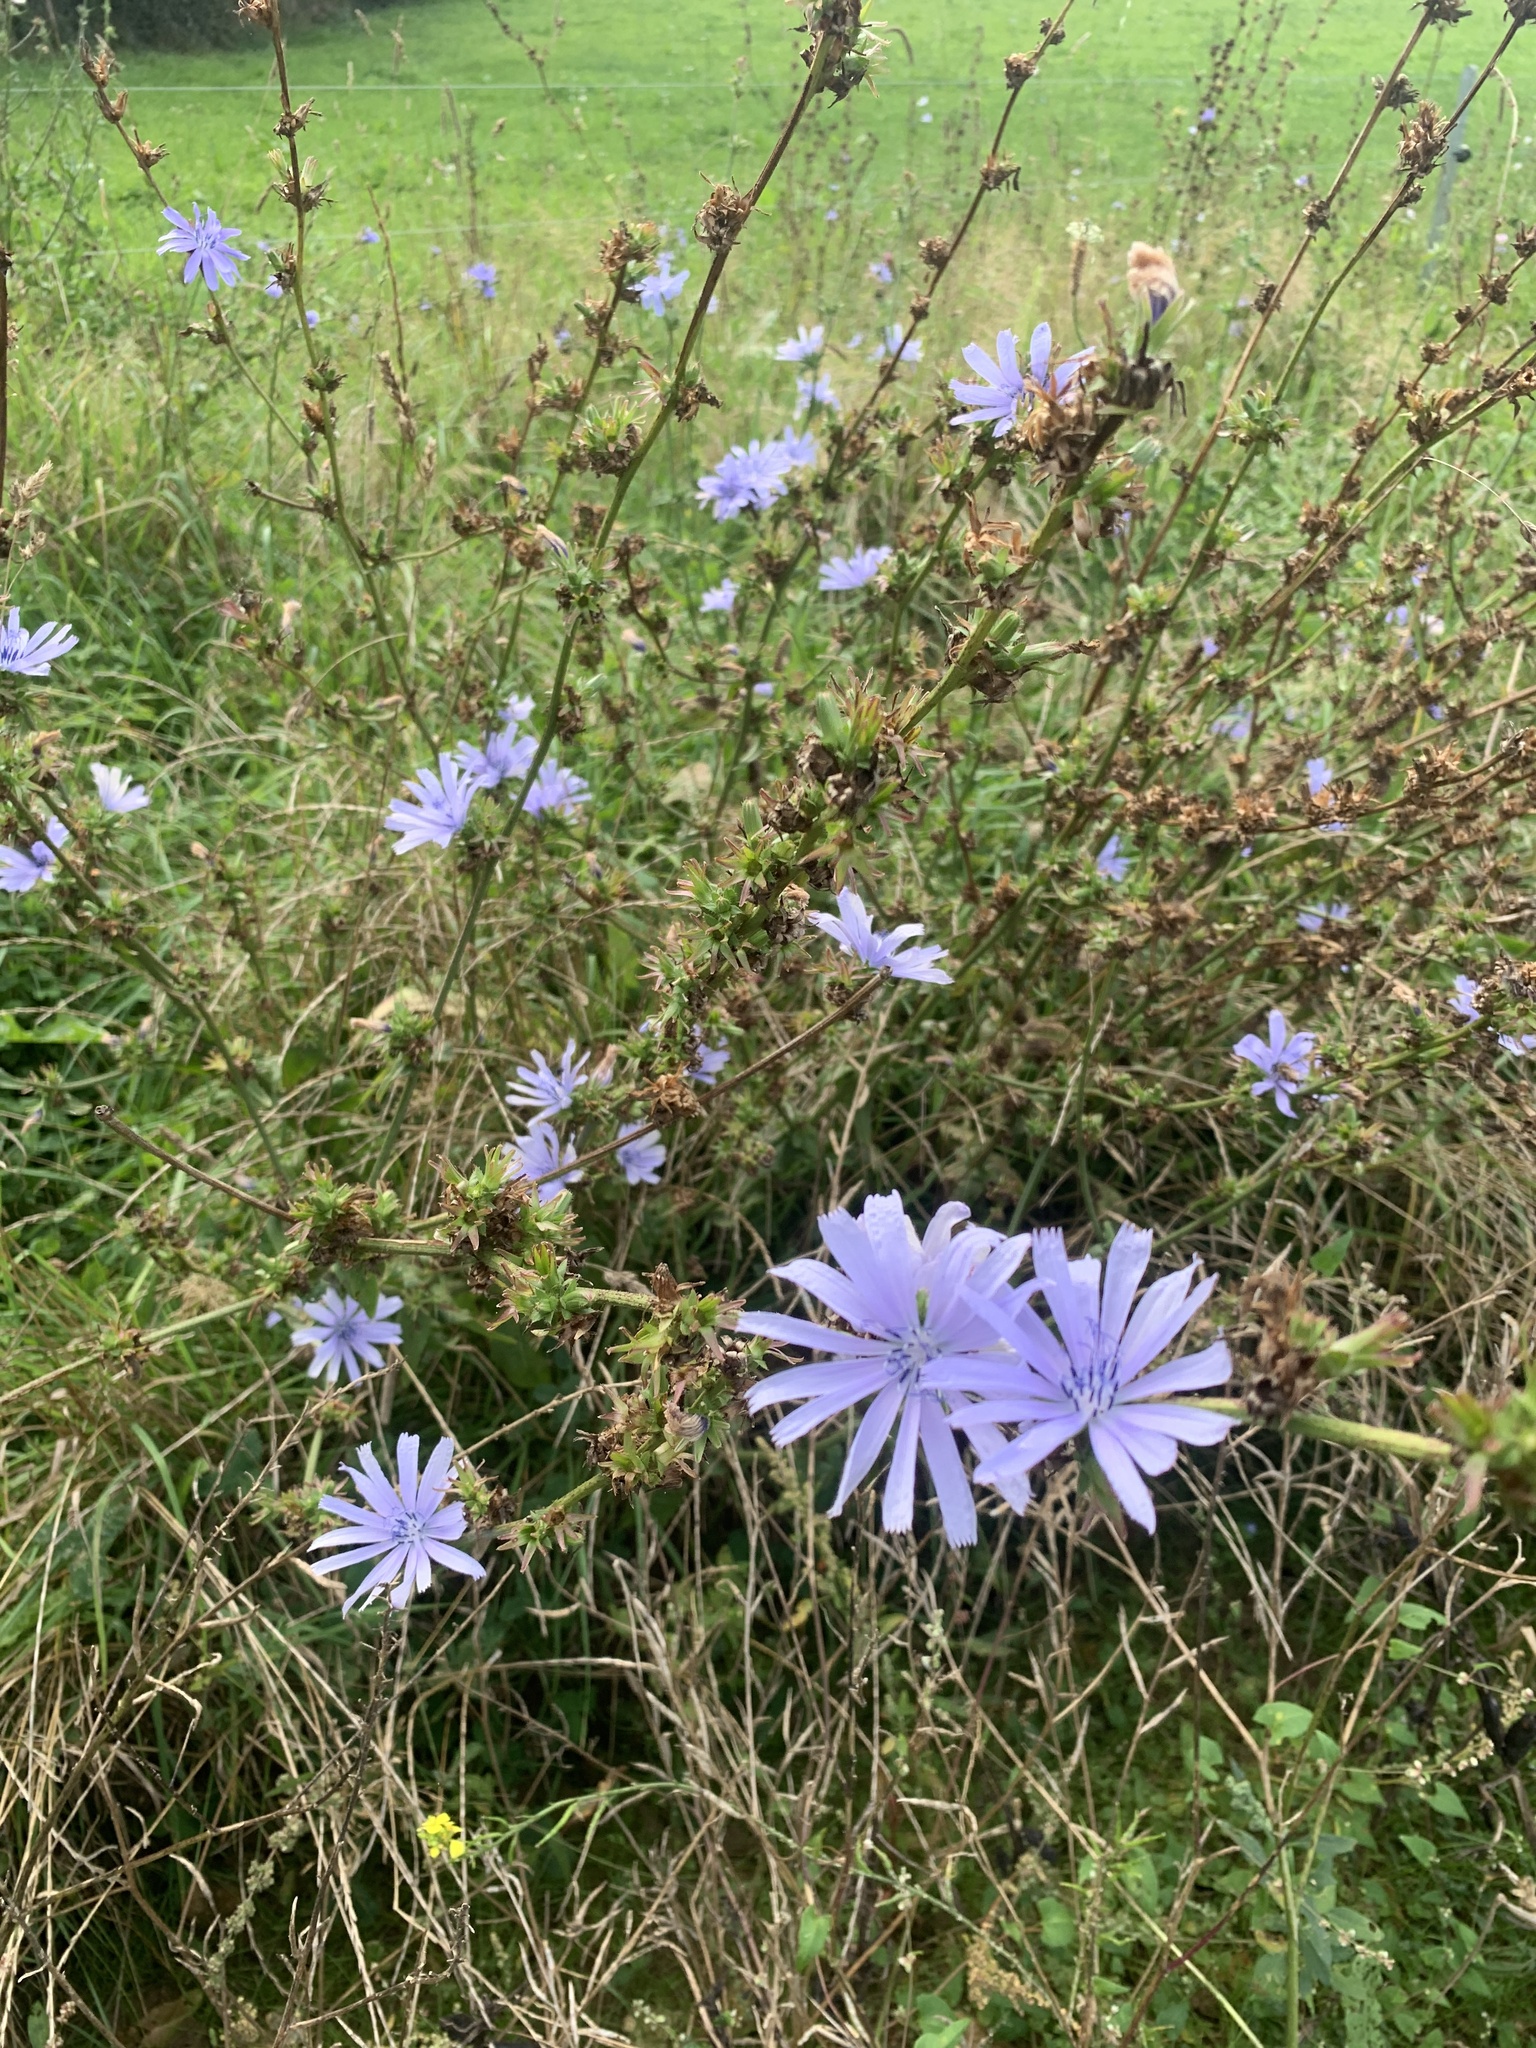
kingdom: Plantae
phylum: Tracheophyta
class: Magnoliopsida
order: Asterales
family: Asteraceae
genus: Cichorium
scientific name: Cichorium intybus
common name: Chicory
